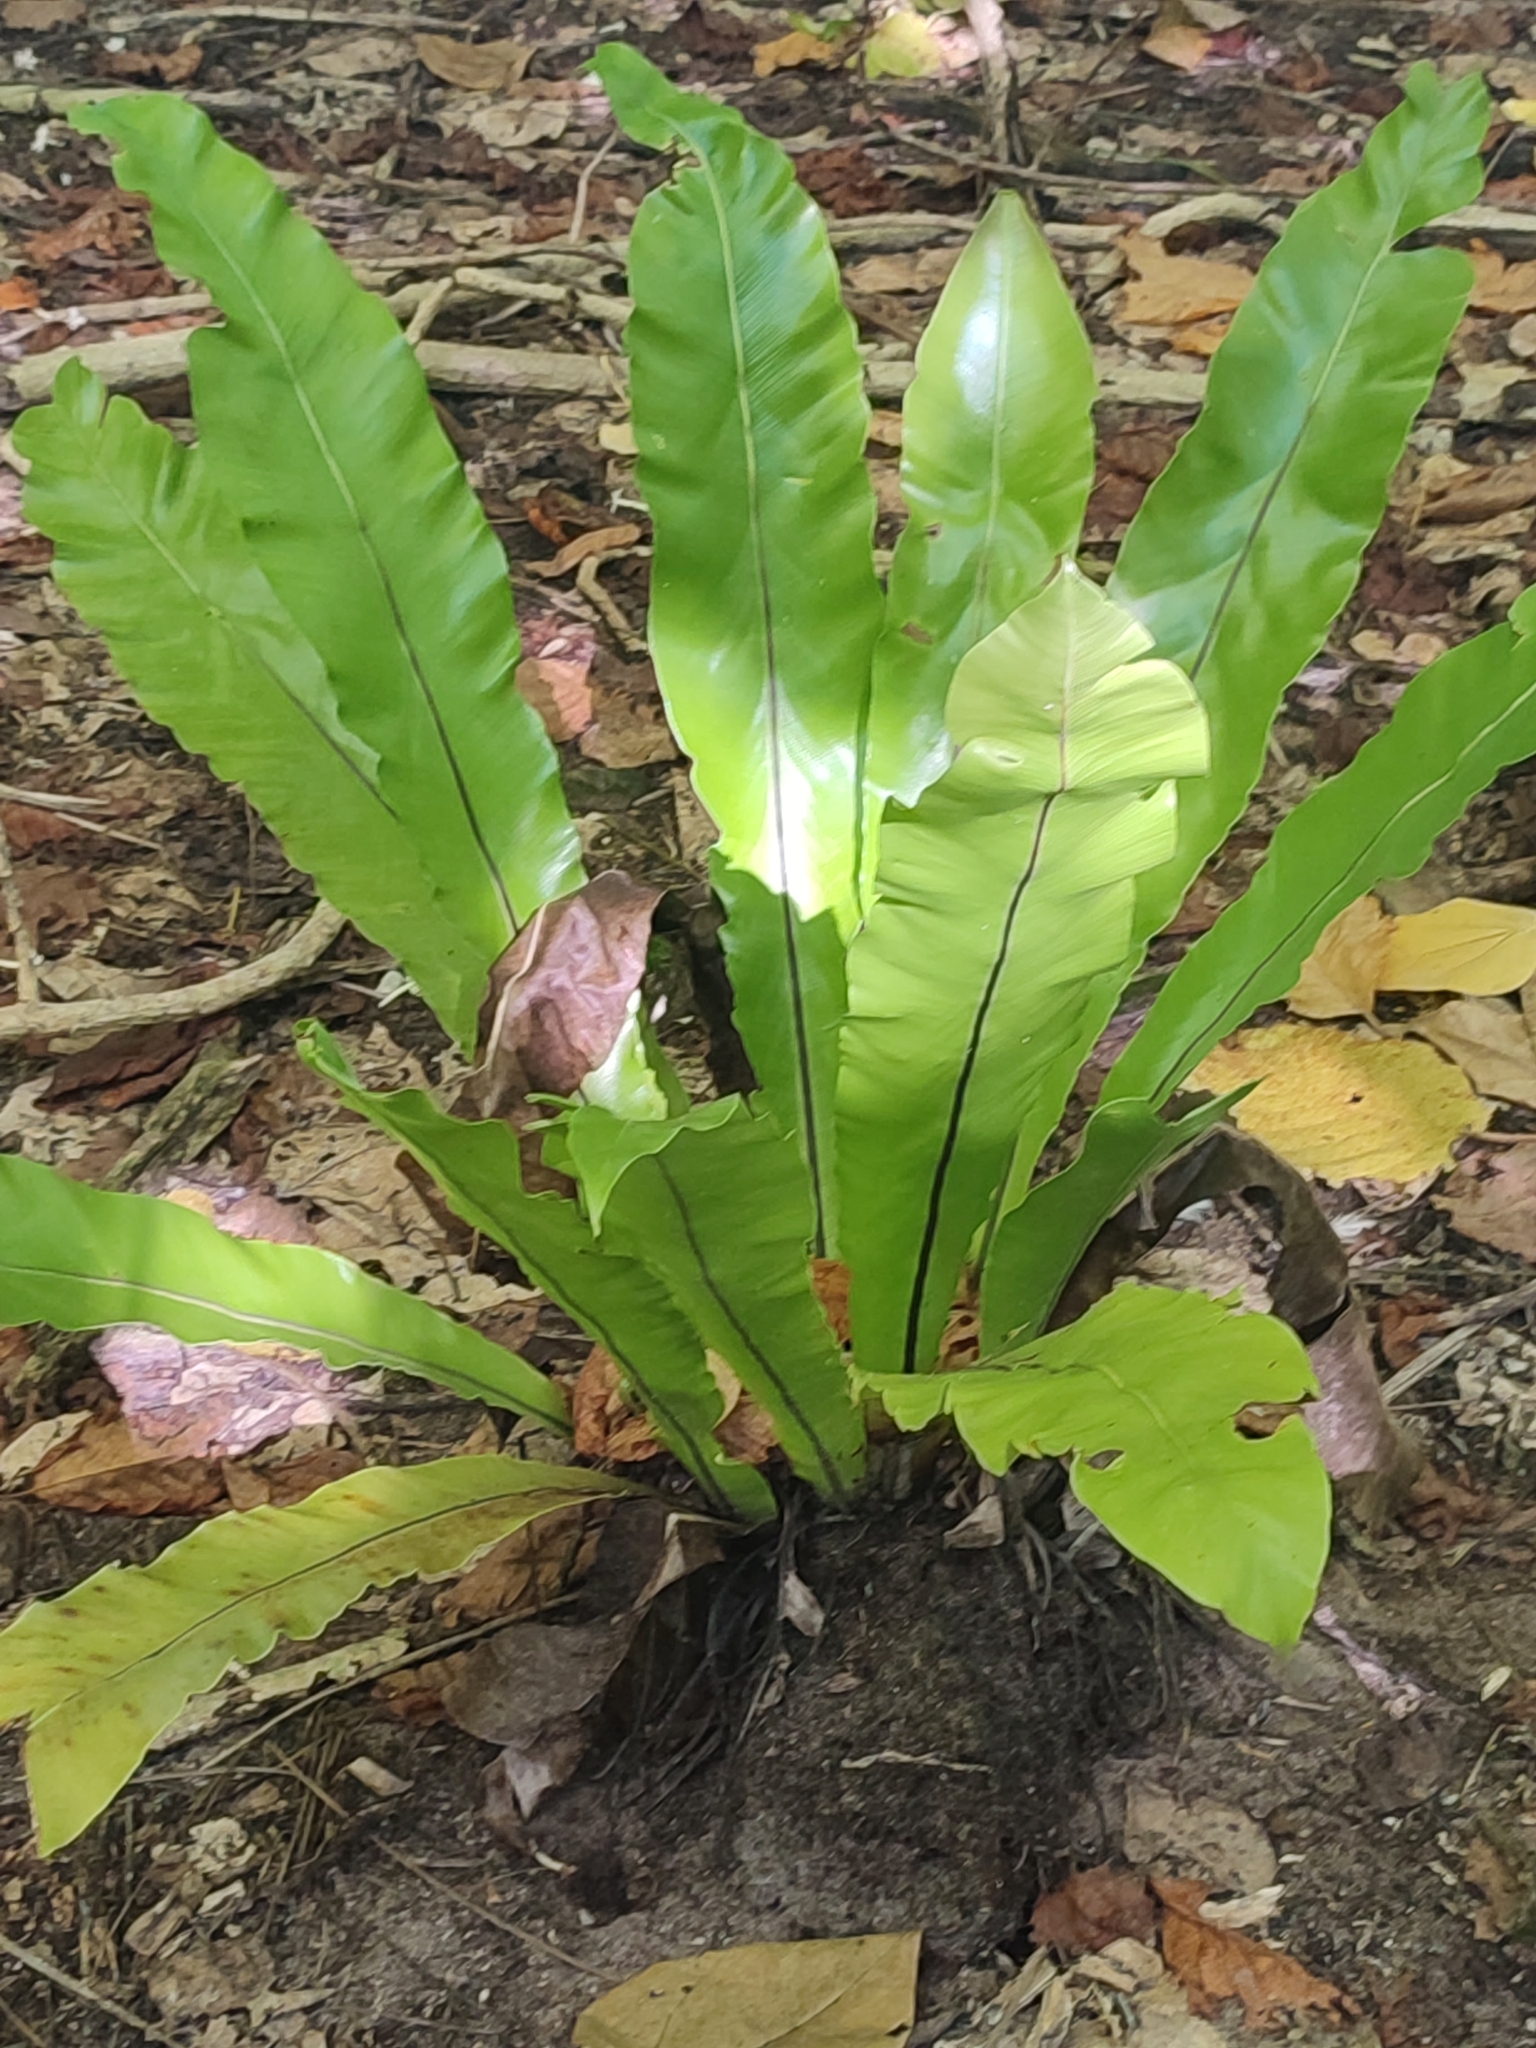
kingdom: Plantae
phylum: Tracheophyta
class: Polypodiopsida
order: Polypodiales
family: Aspleniaceae
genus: Asplenium
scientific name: Asplenium nidus
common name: Bird's-nest fern
